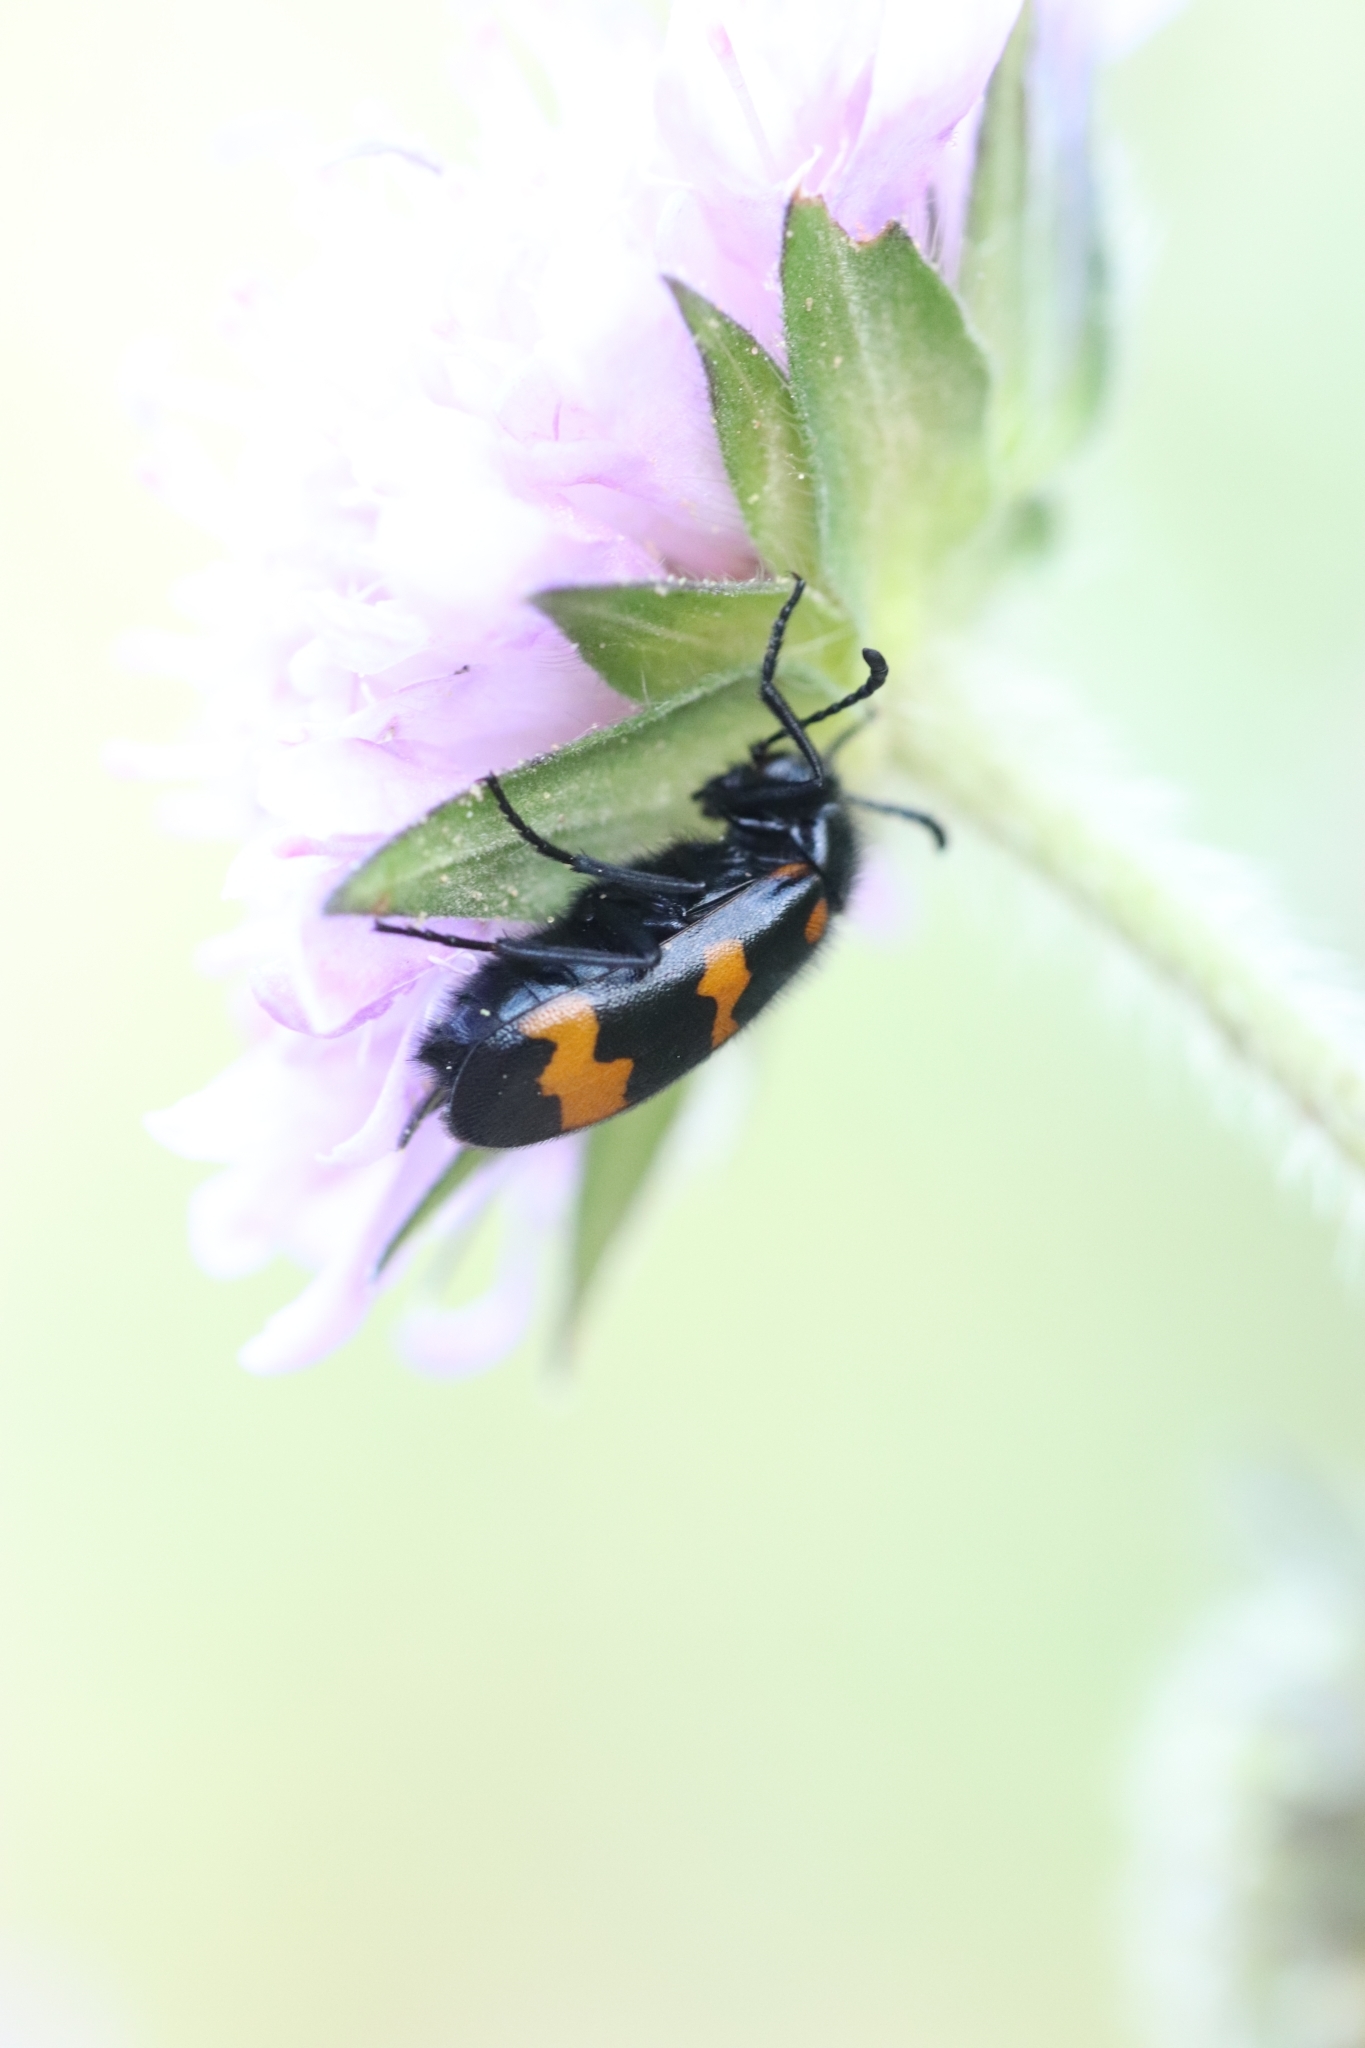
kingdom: Animalia
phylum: Arthropoda
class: Insecta
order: Coleoptera
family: Meloidae
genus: Mylabris
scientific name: Mylabris variabilis
